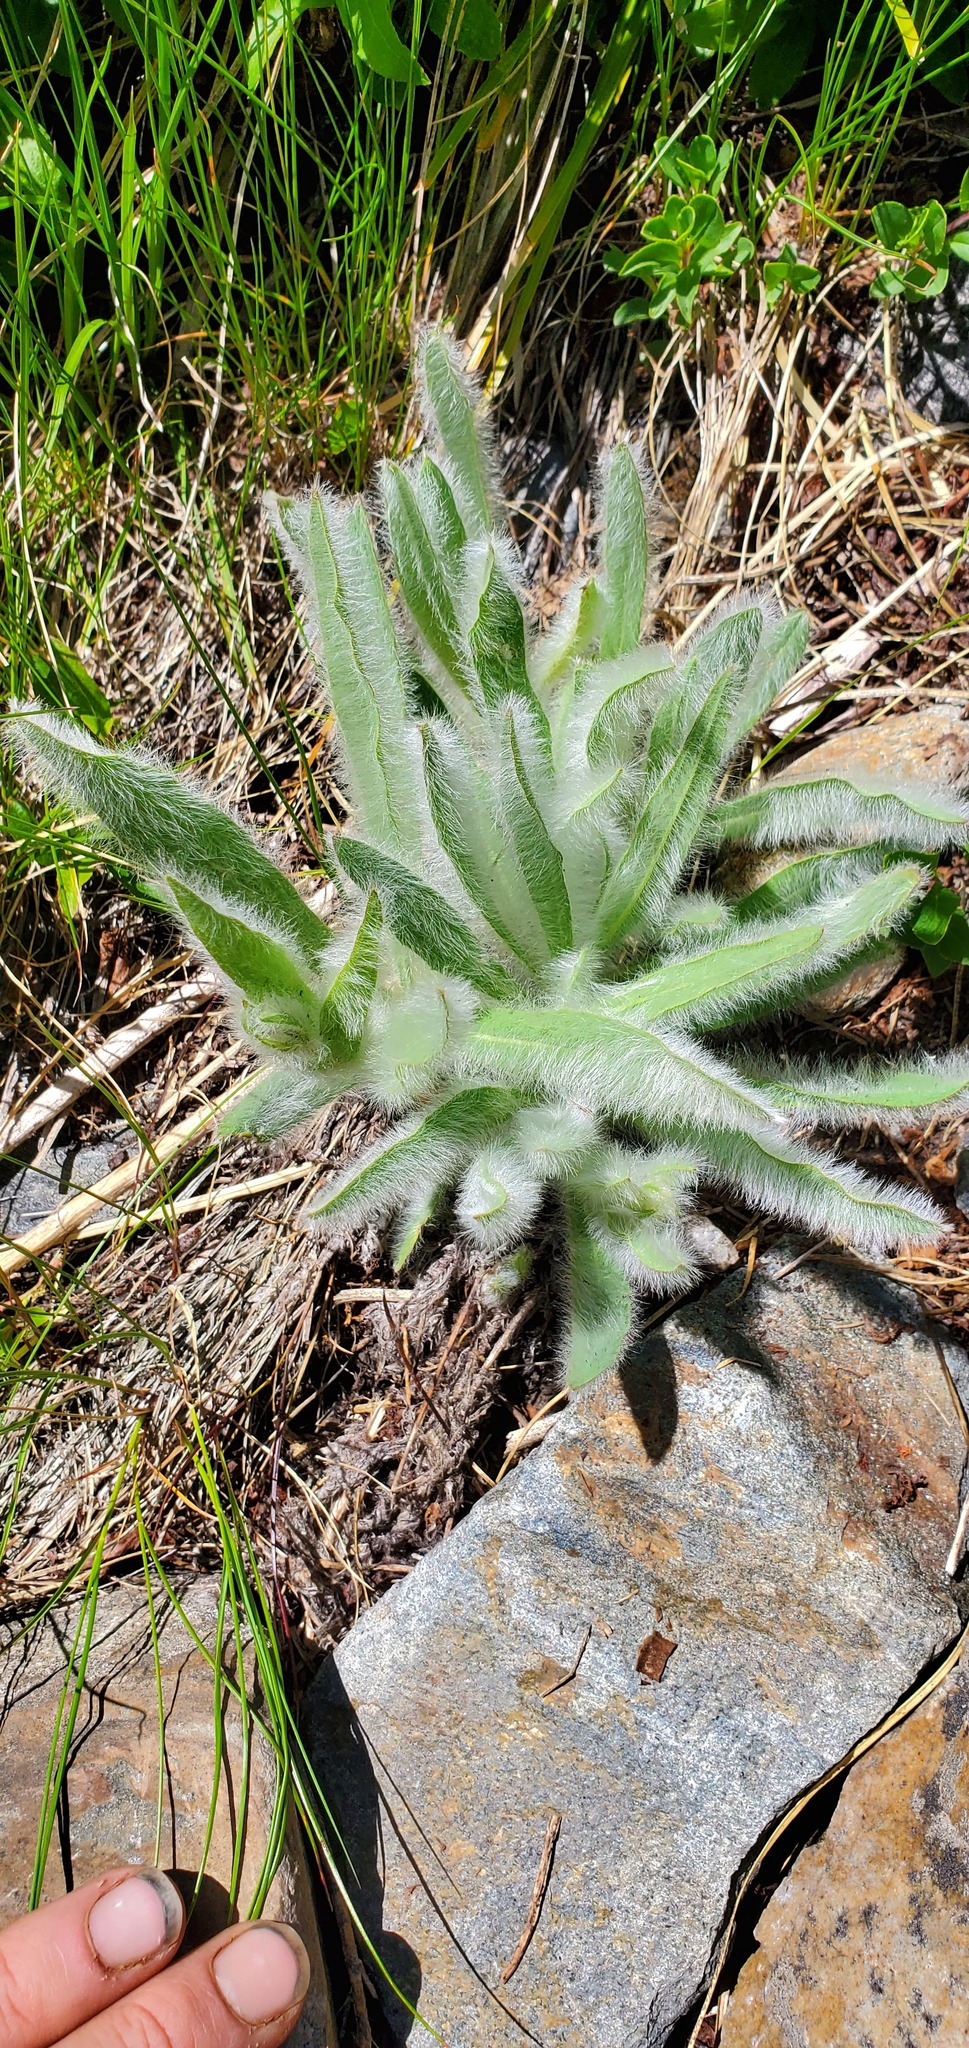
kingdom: Plantae
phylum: Tracheophyta
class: Magnoliopsida
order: Asterales
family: Asteraceae
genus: Hieracium
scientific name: Hieracium scouleri
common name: Hound's-tongue hawkweed
